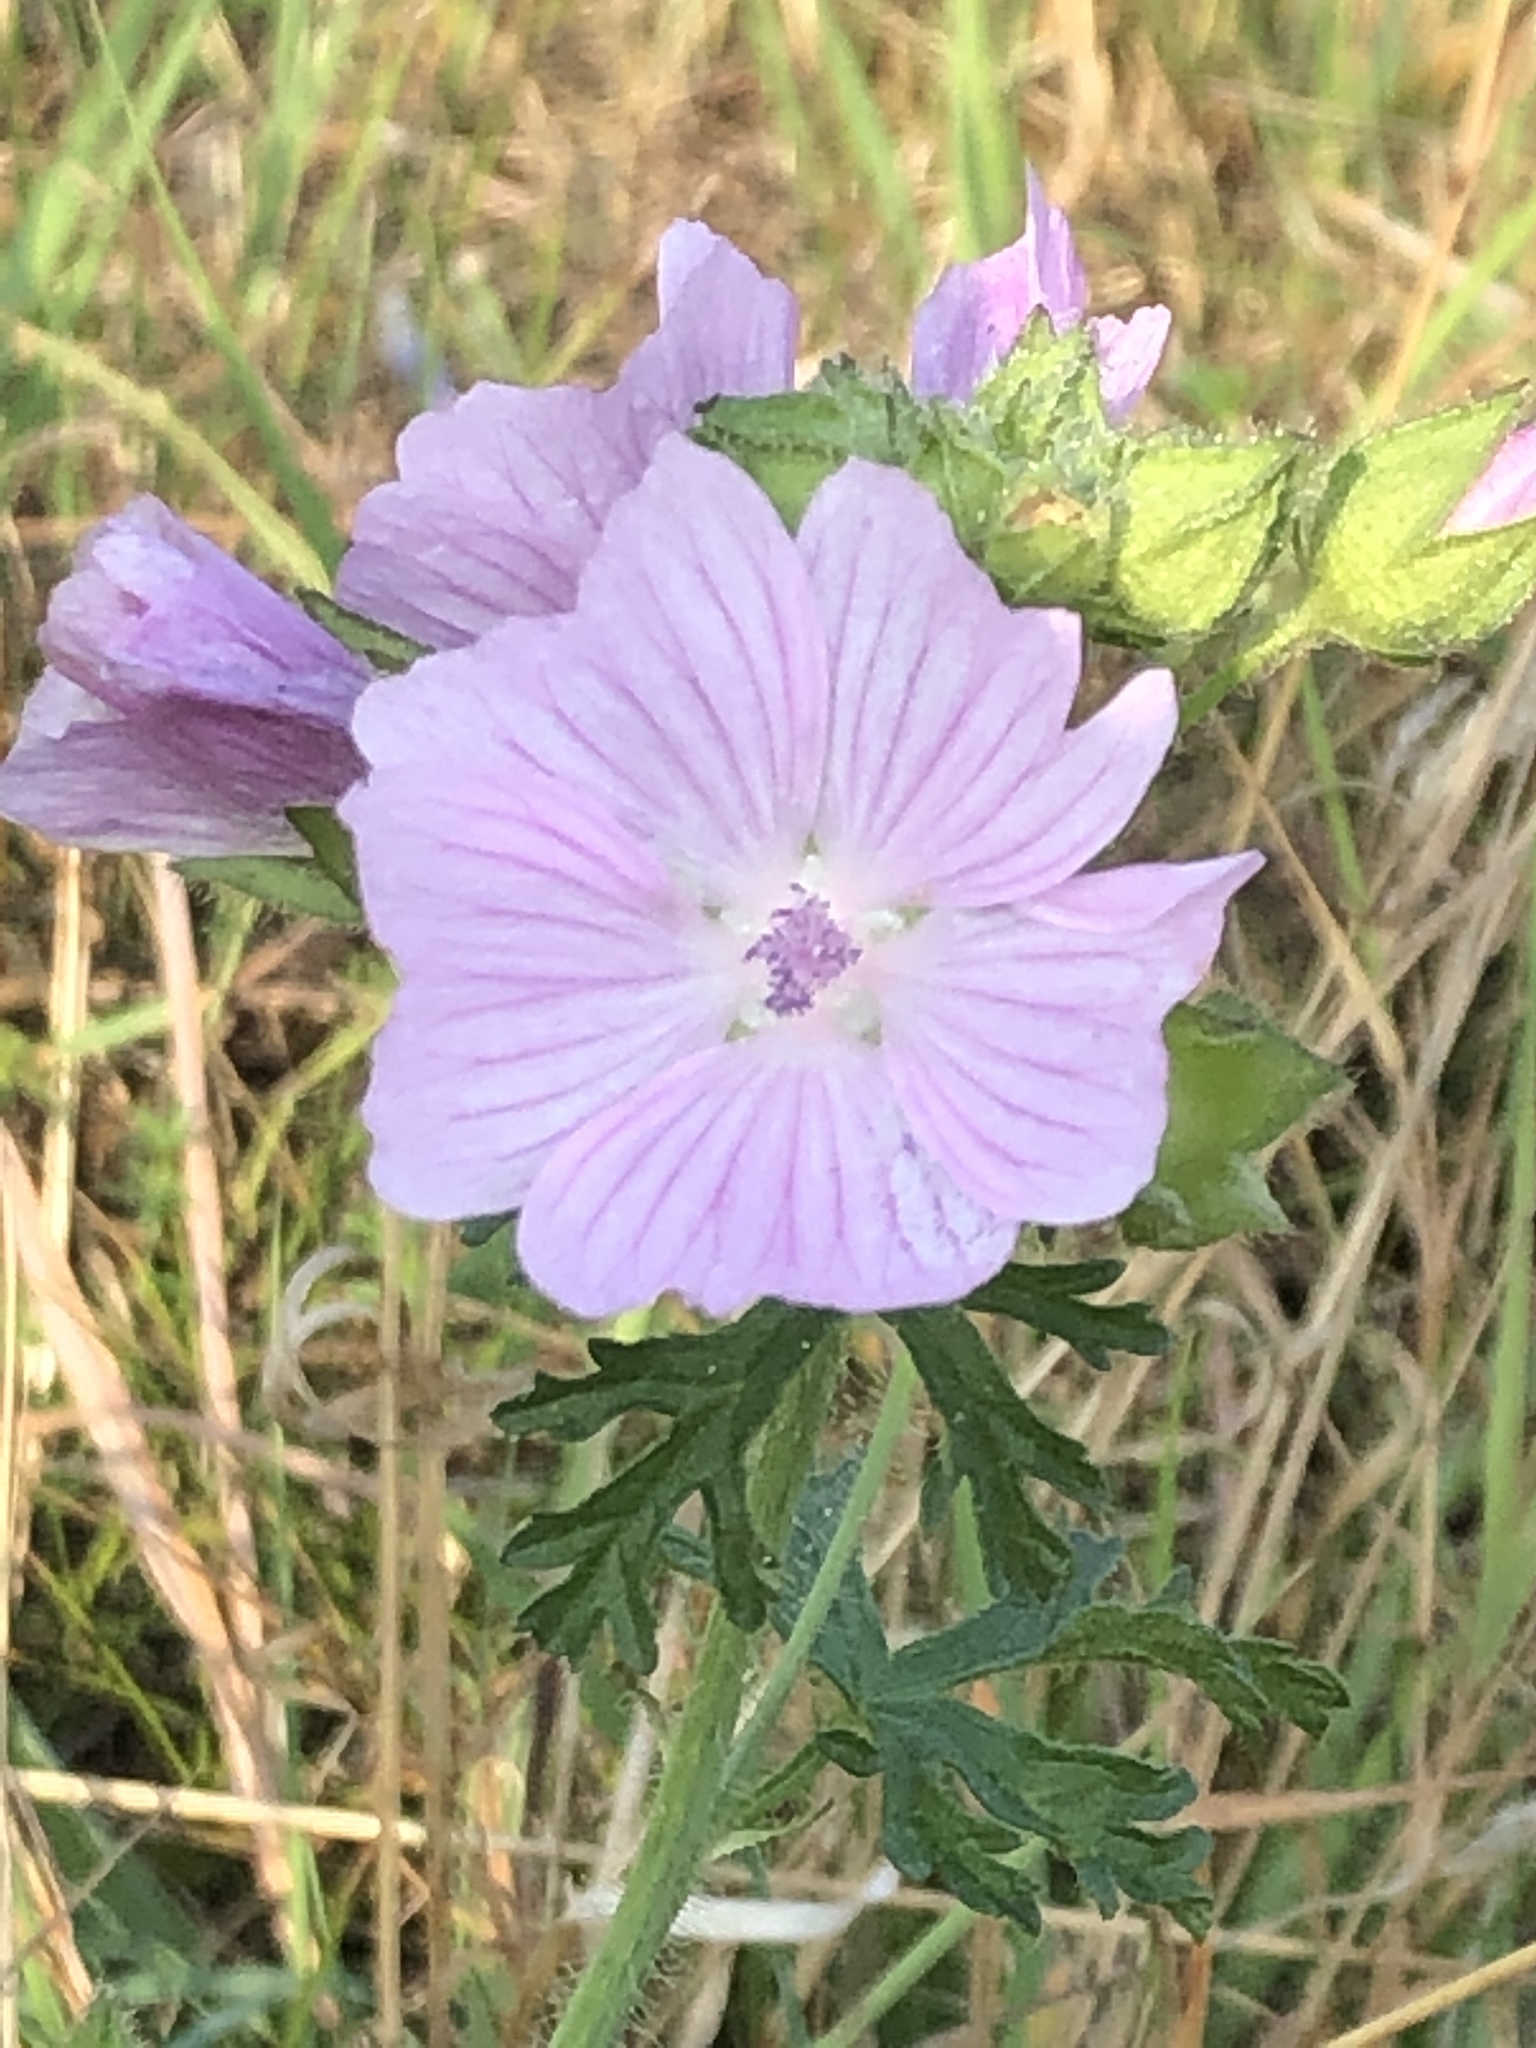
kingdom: Plantae
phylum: Tracheophyta
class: Magnoliopsida
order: Malvales
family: Malvaceae
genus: Malva
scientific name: Malva moschata
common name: Musk mallow
